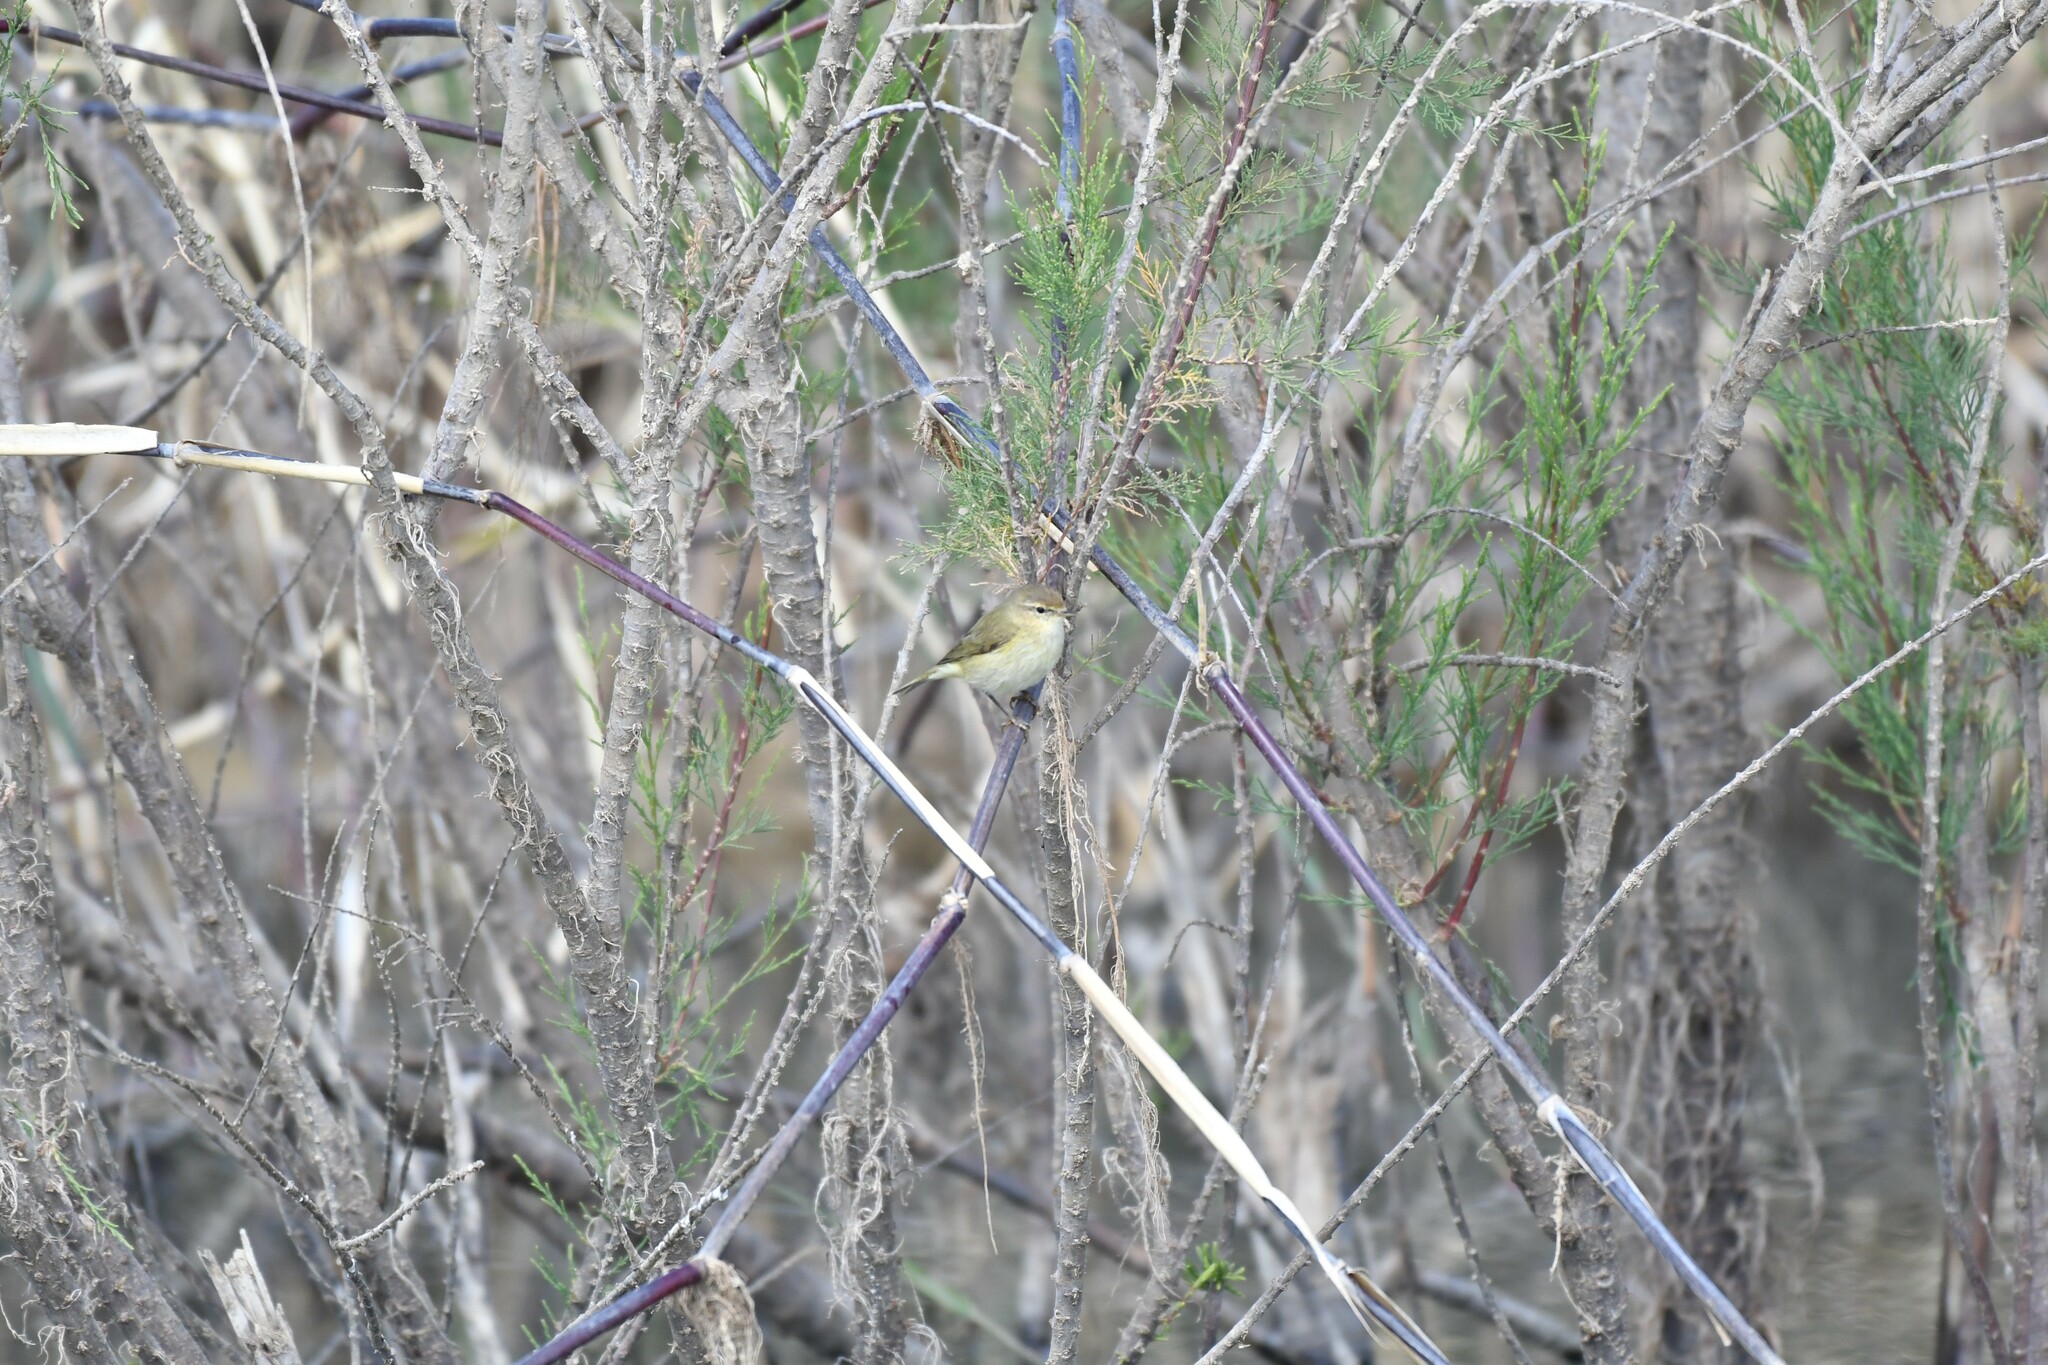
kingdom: Animalia
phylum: Chordata
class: Aves
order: Passeriformes
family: Phylloscopidae
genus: Phylloscopus
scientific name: Phylloscopus collybita
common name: Common chiffchaff
